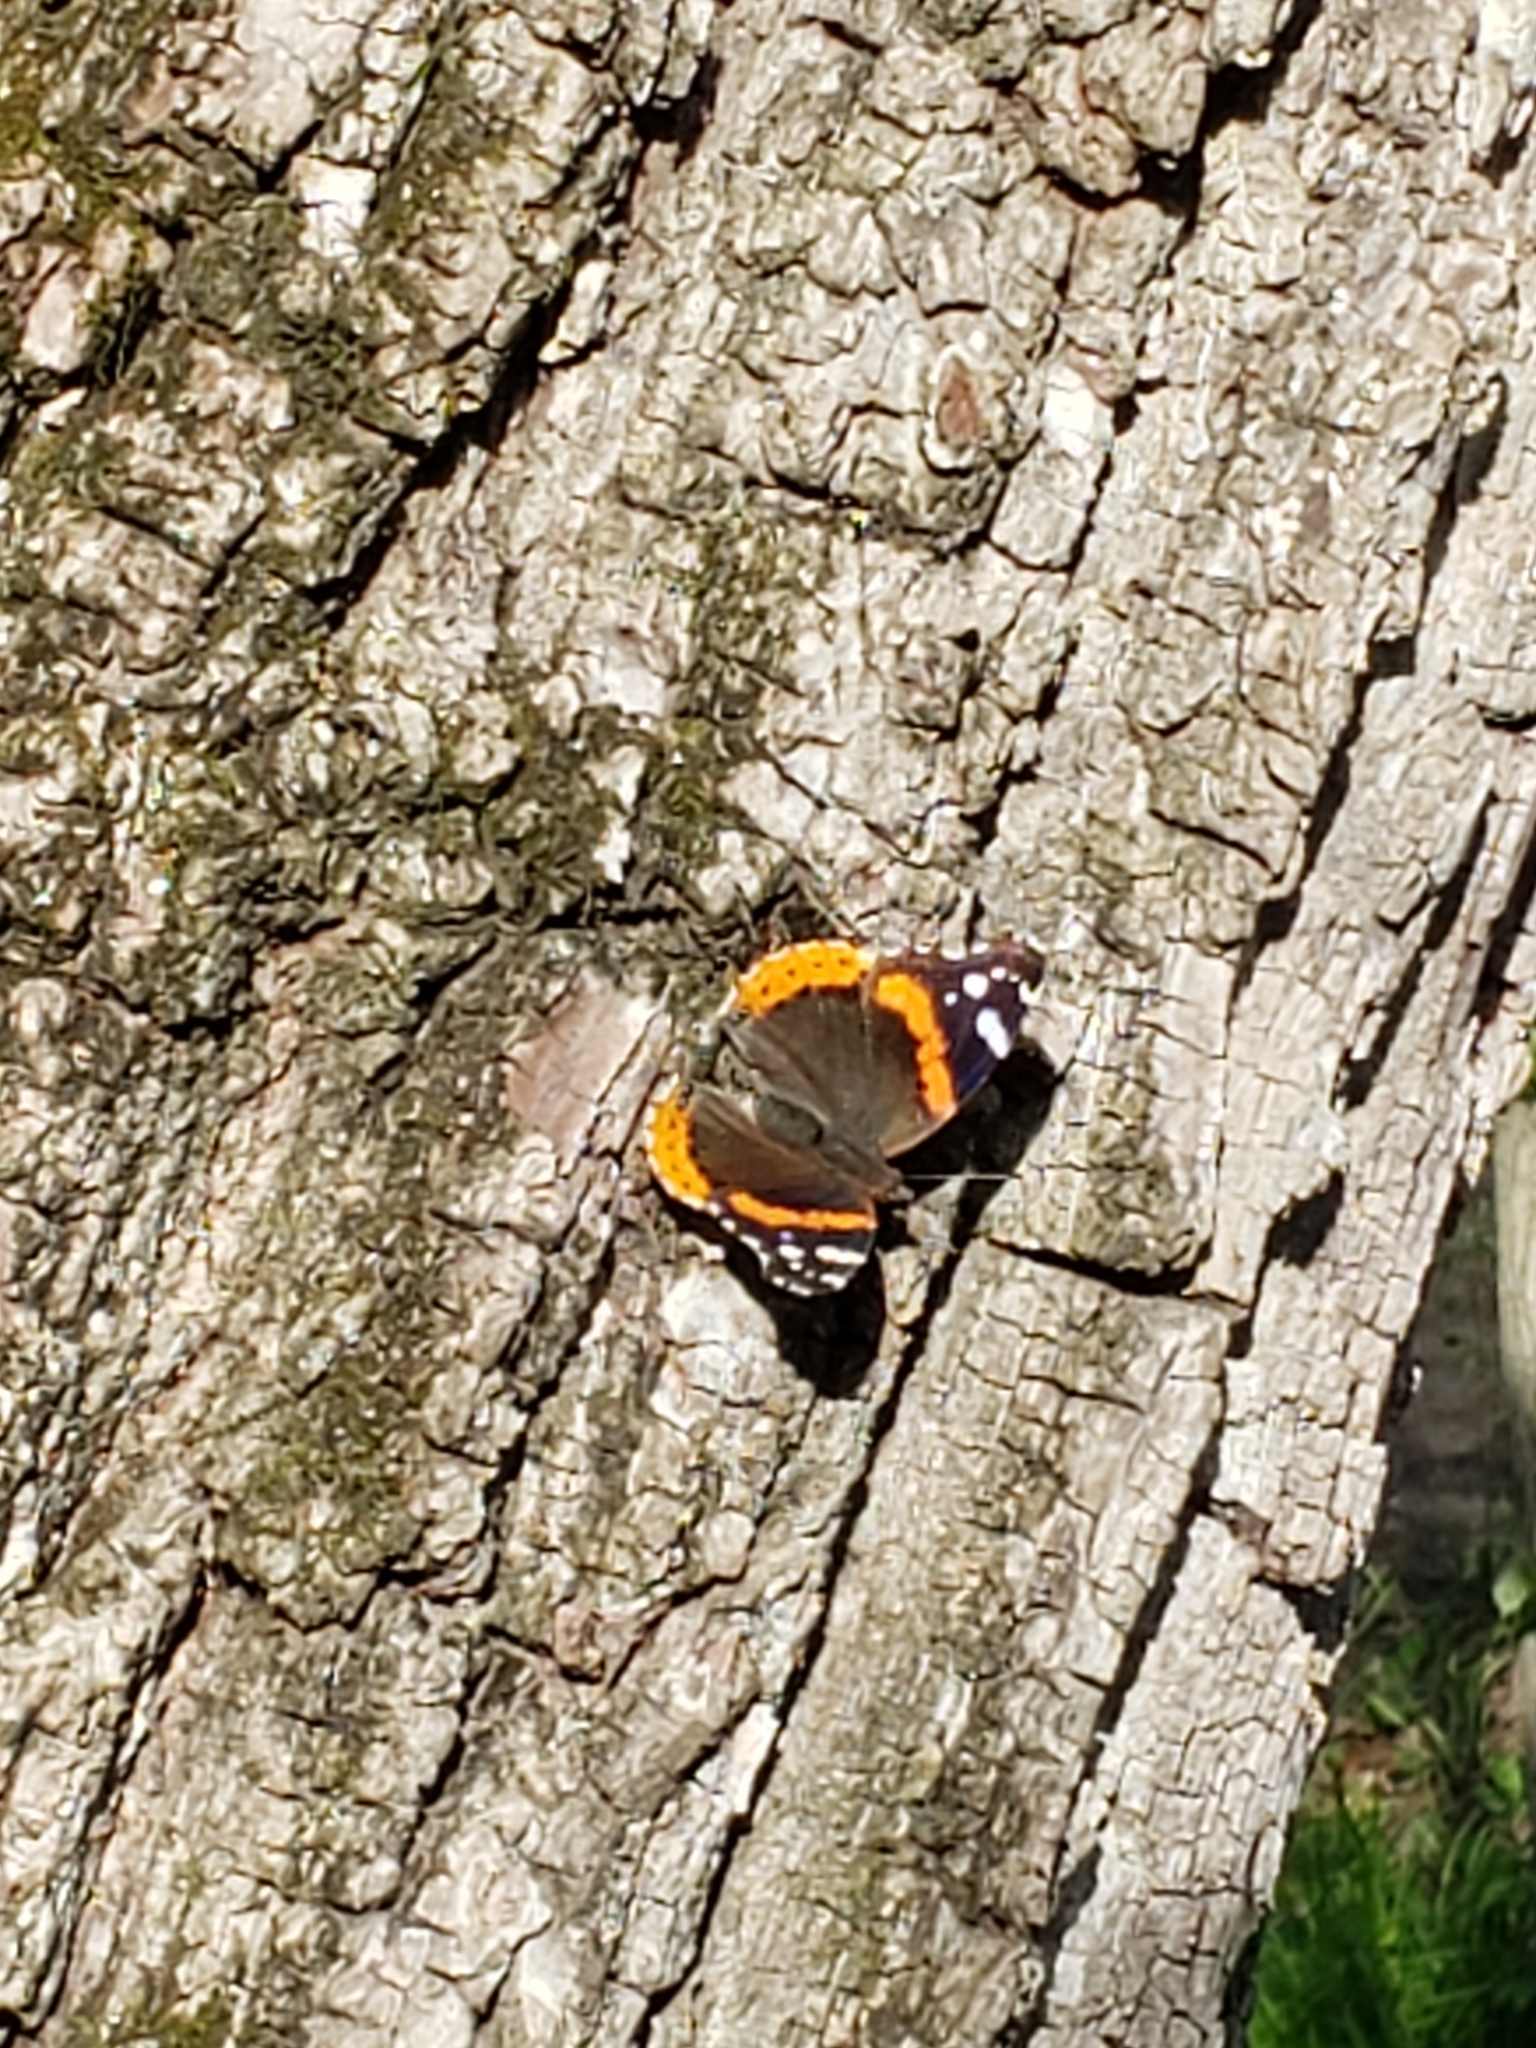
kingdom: Animalia
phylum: Arthropoda
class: Insecta
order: Lepidoptera
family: Nymphalidae
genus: Vanessa
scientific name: Vanessa atalanta
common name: Red admiral
